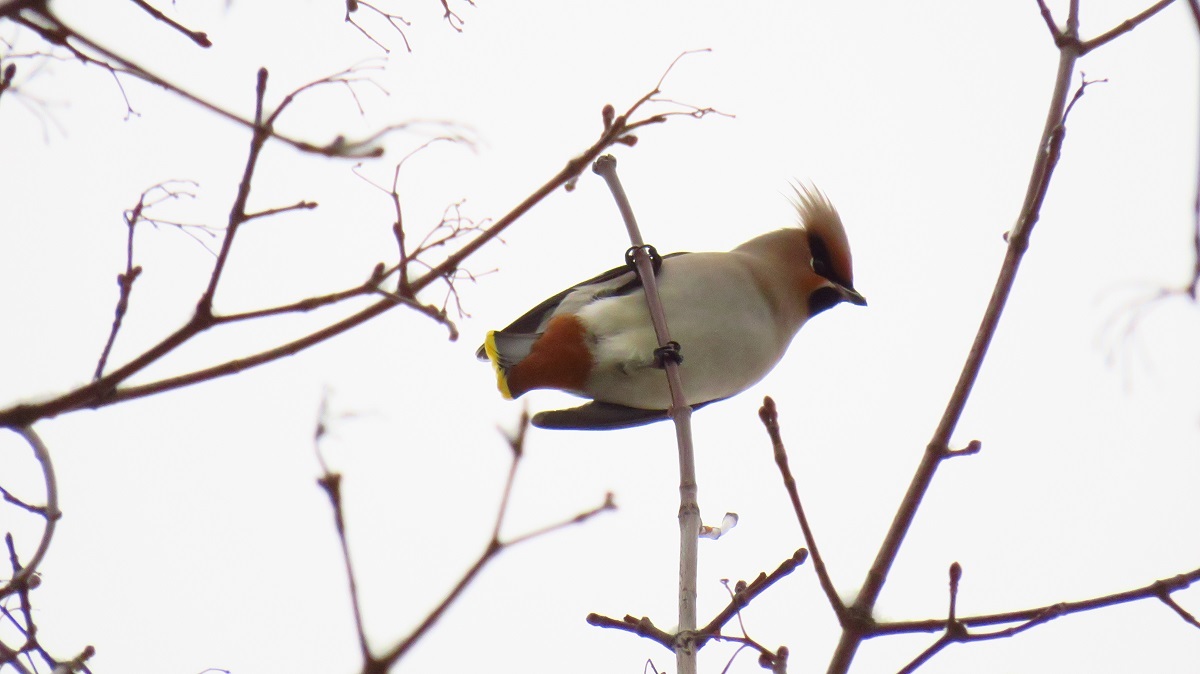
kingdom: Animalia
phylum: Chordata
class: Aves
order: Passeriformes
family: Bombycillidae
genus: Bombycilla
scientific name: Bombycilla garrulus
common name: Bohemian waxwing
